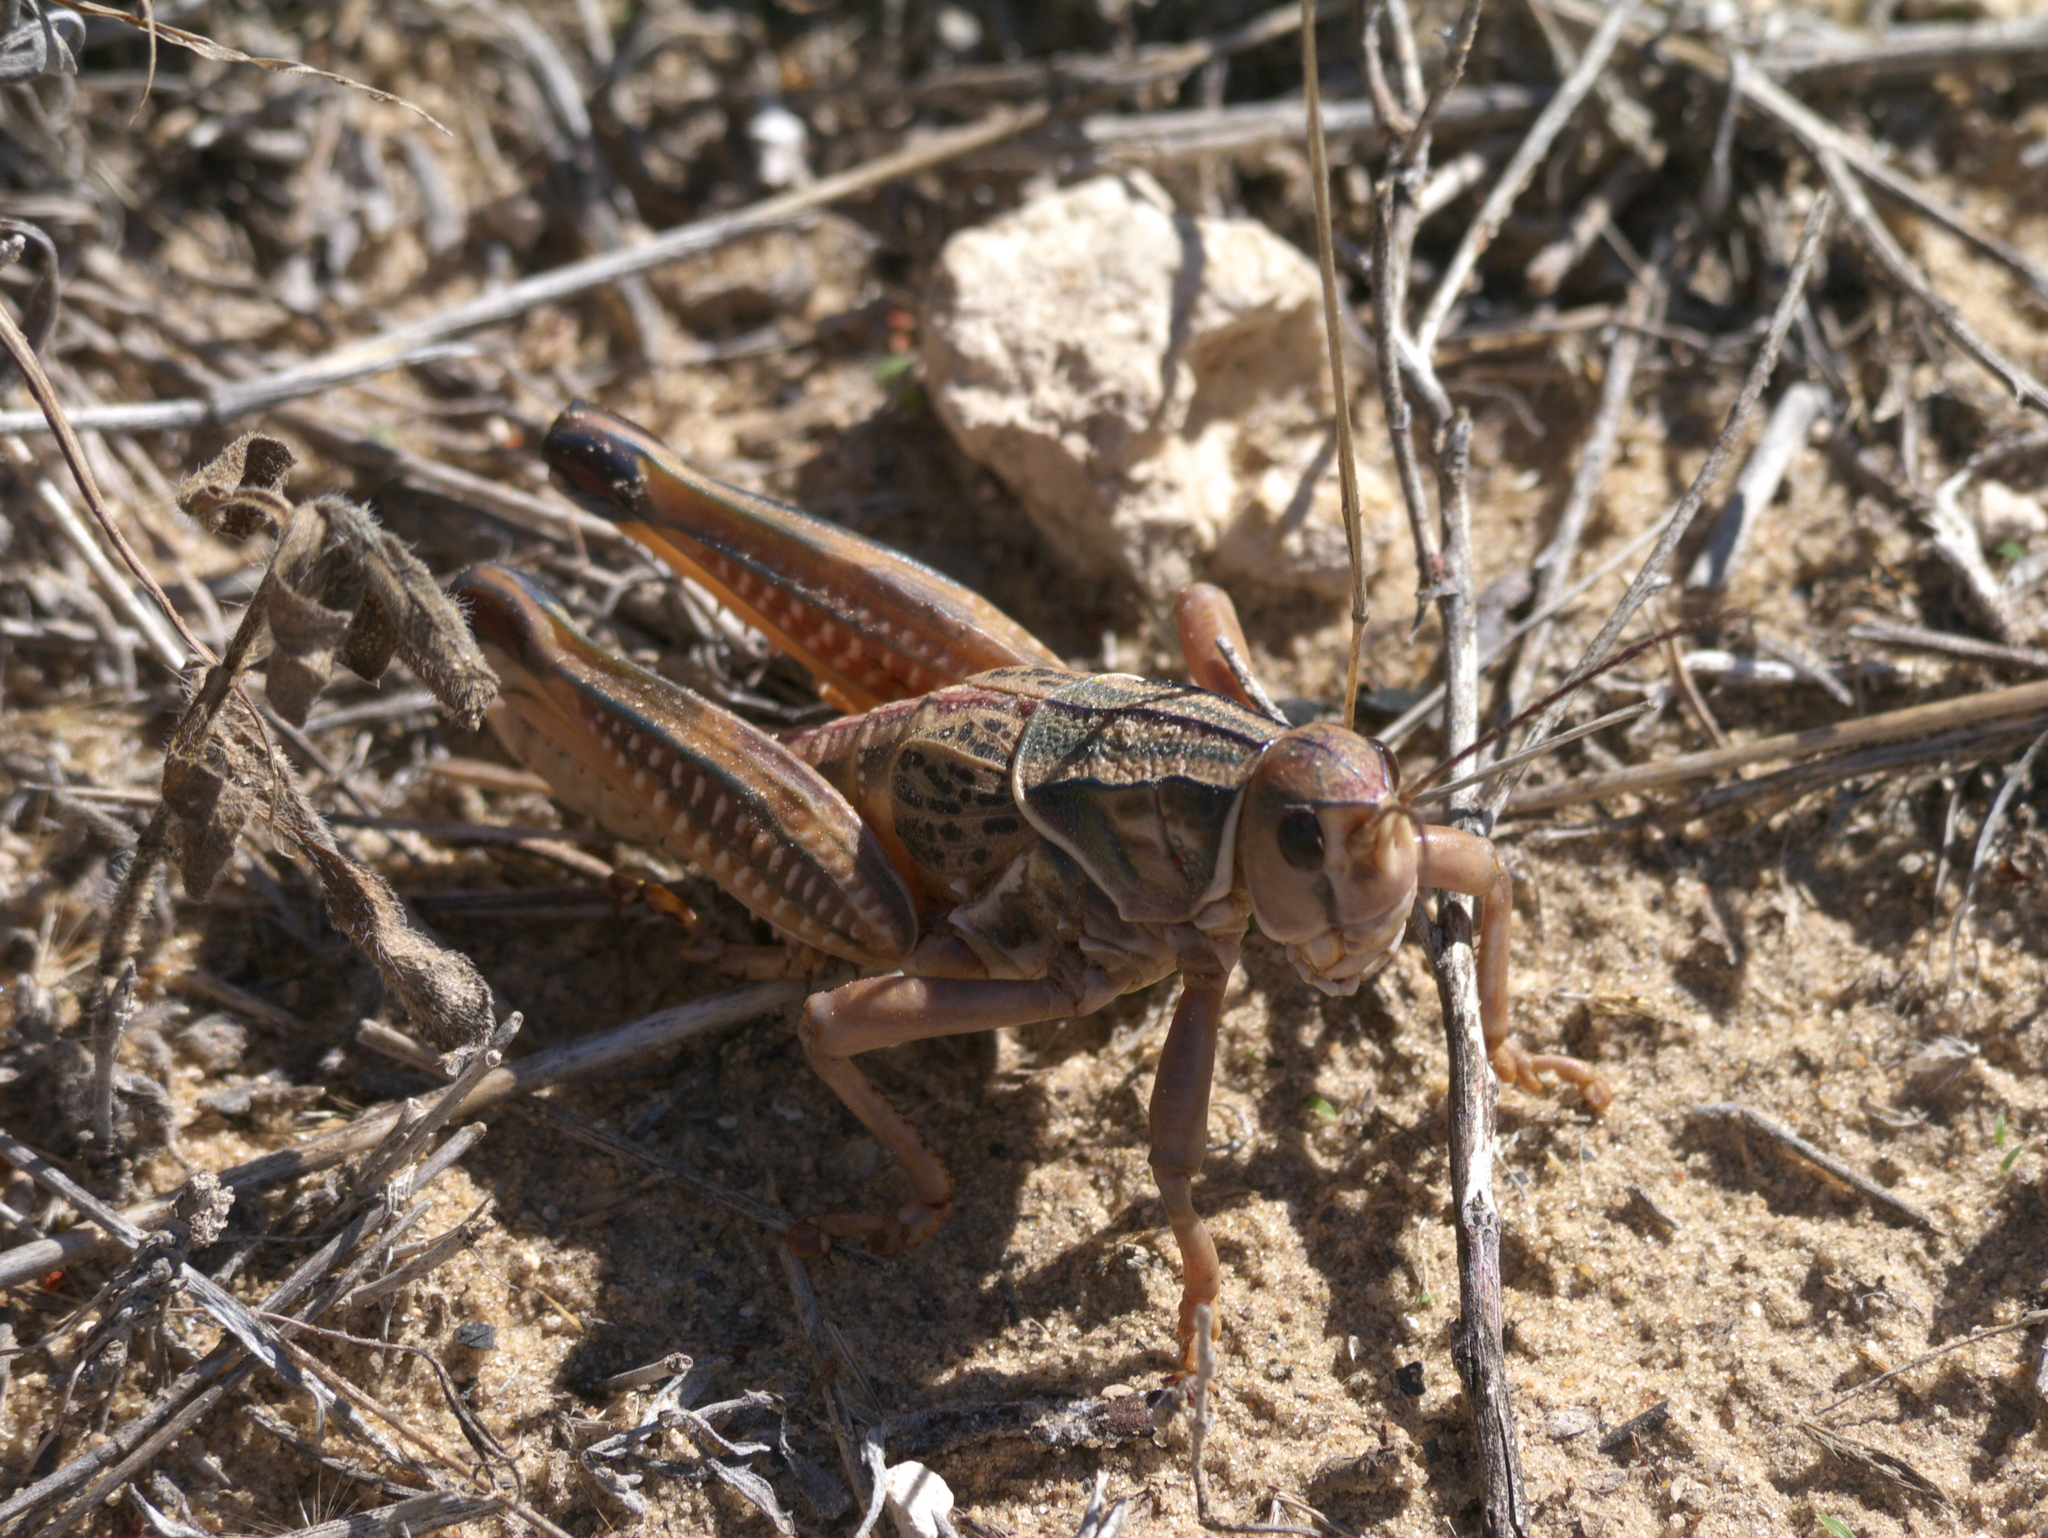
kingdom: Animalia
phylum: Arthropoda
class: Insecta
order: Orthoptera
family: Romaleidae
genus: Brachystola
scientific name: Brachystola magna
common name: Plains lubber grasshopper
